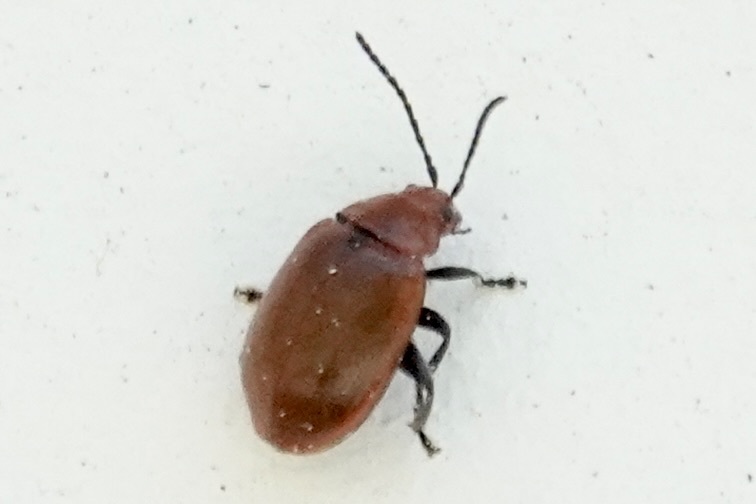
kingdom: Animalia
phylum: Arthropoda
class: Insecta
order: Coleoptera
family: Chrysomelidae
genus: Strabala
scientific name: Strabala rufa
